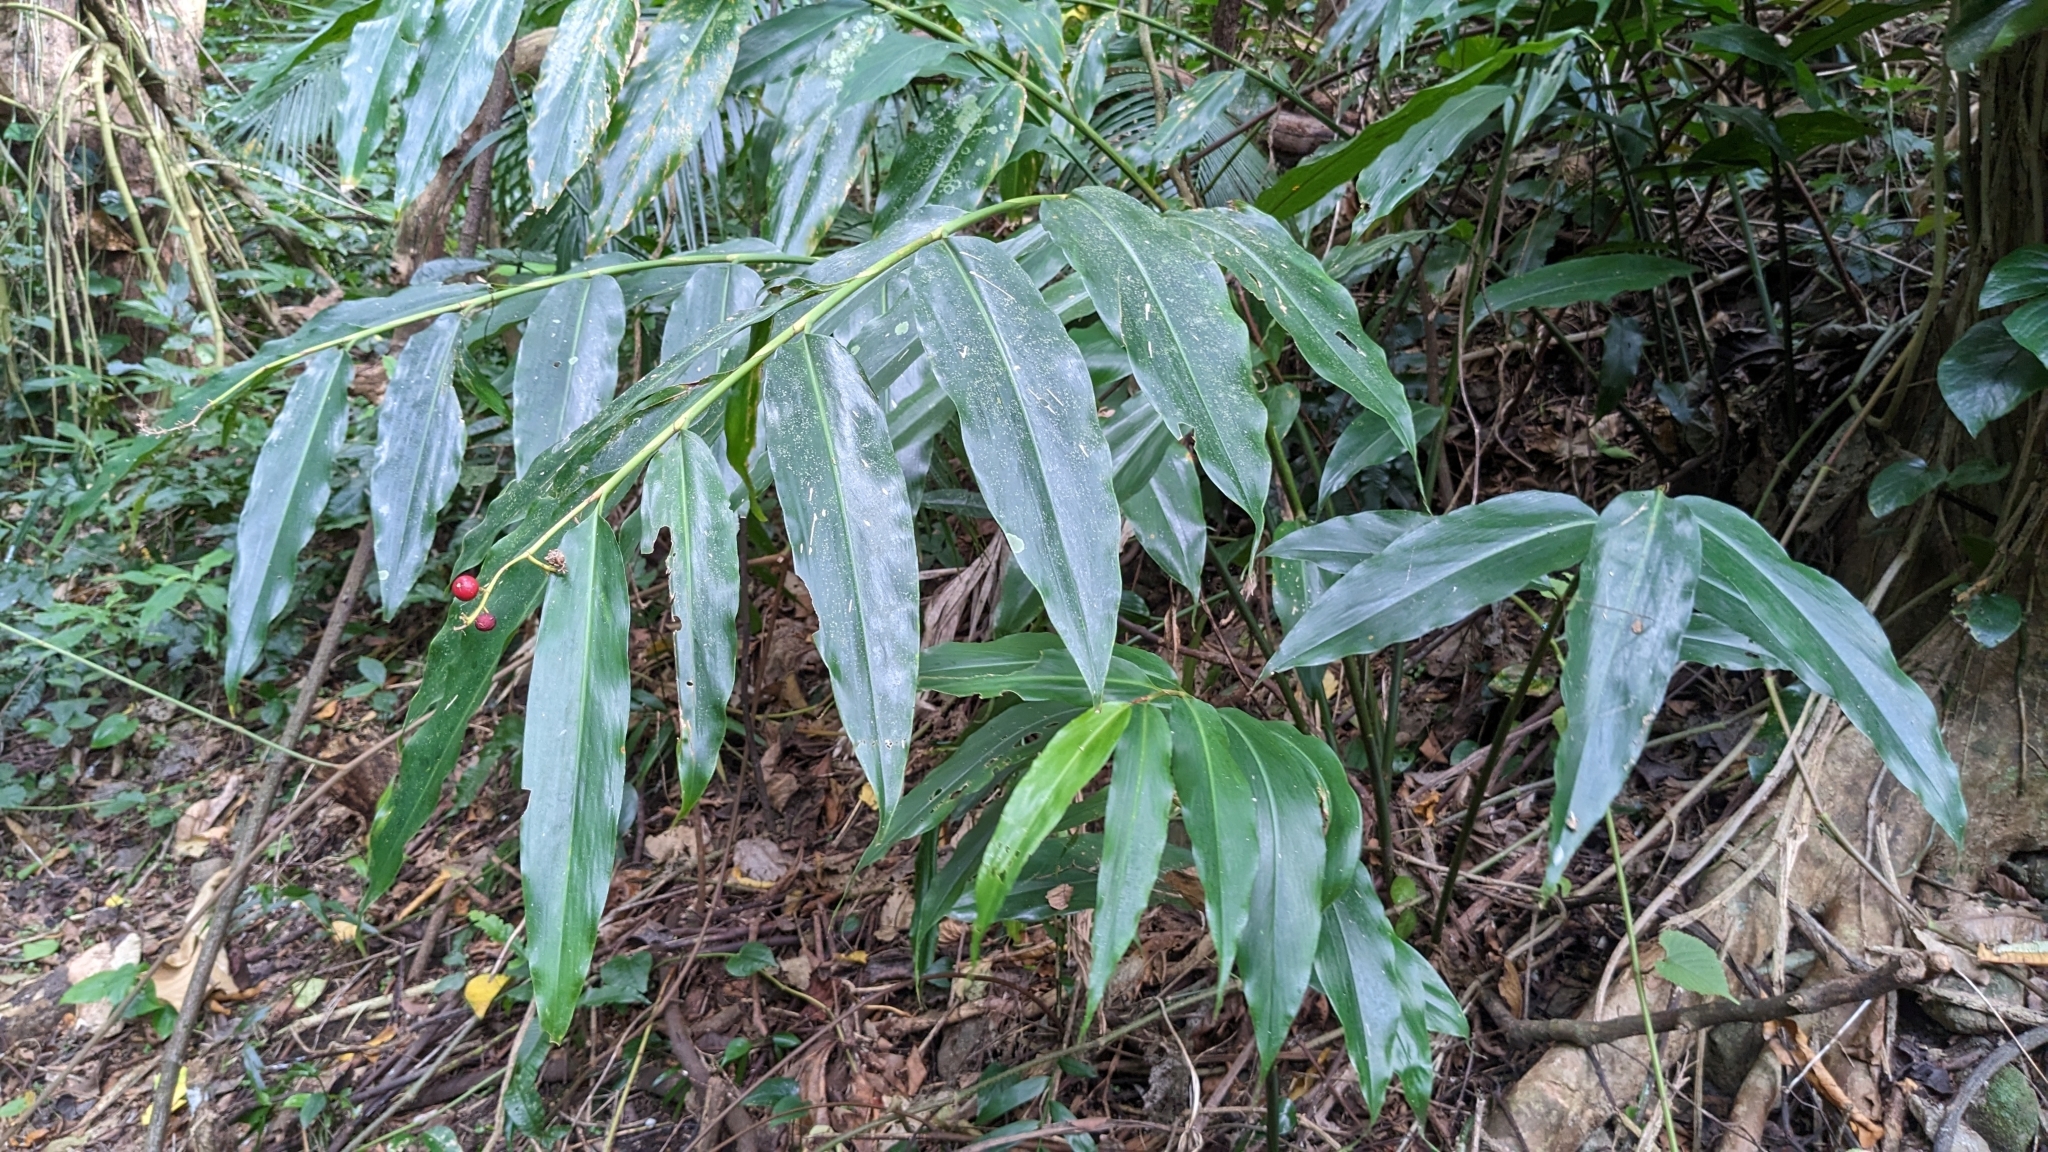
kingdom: Plantae
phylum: Tracheophyta
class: Liliopsida
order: Zingiberales
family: Zingiberaceae
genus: Alpinia
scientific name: Alpinia intermedia
